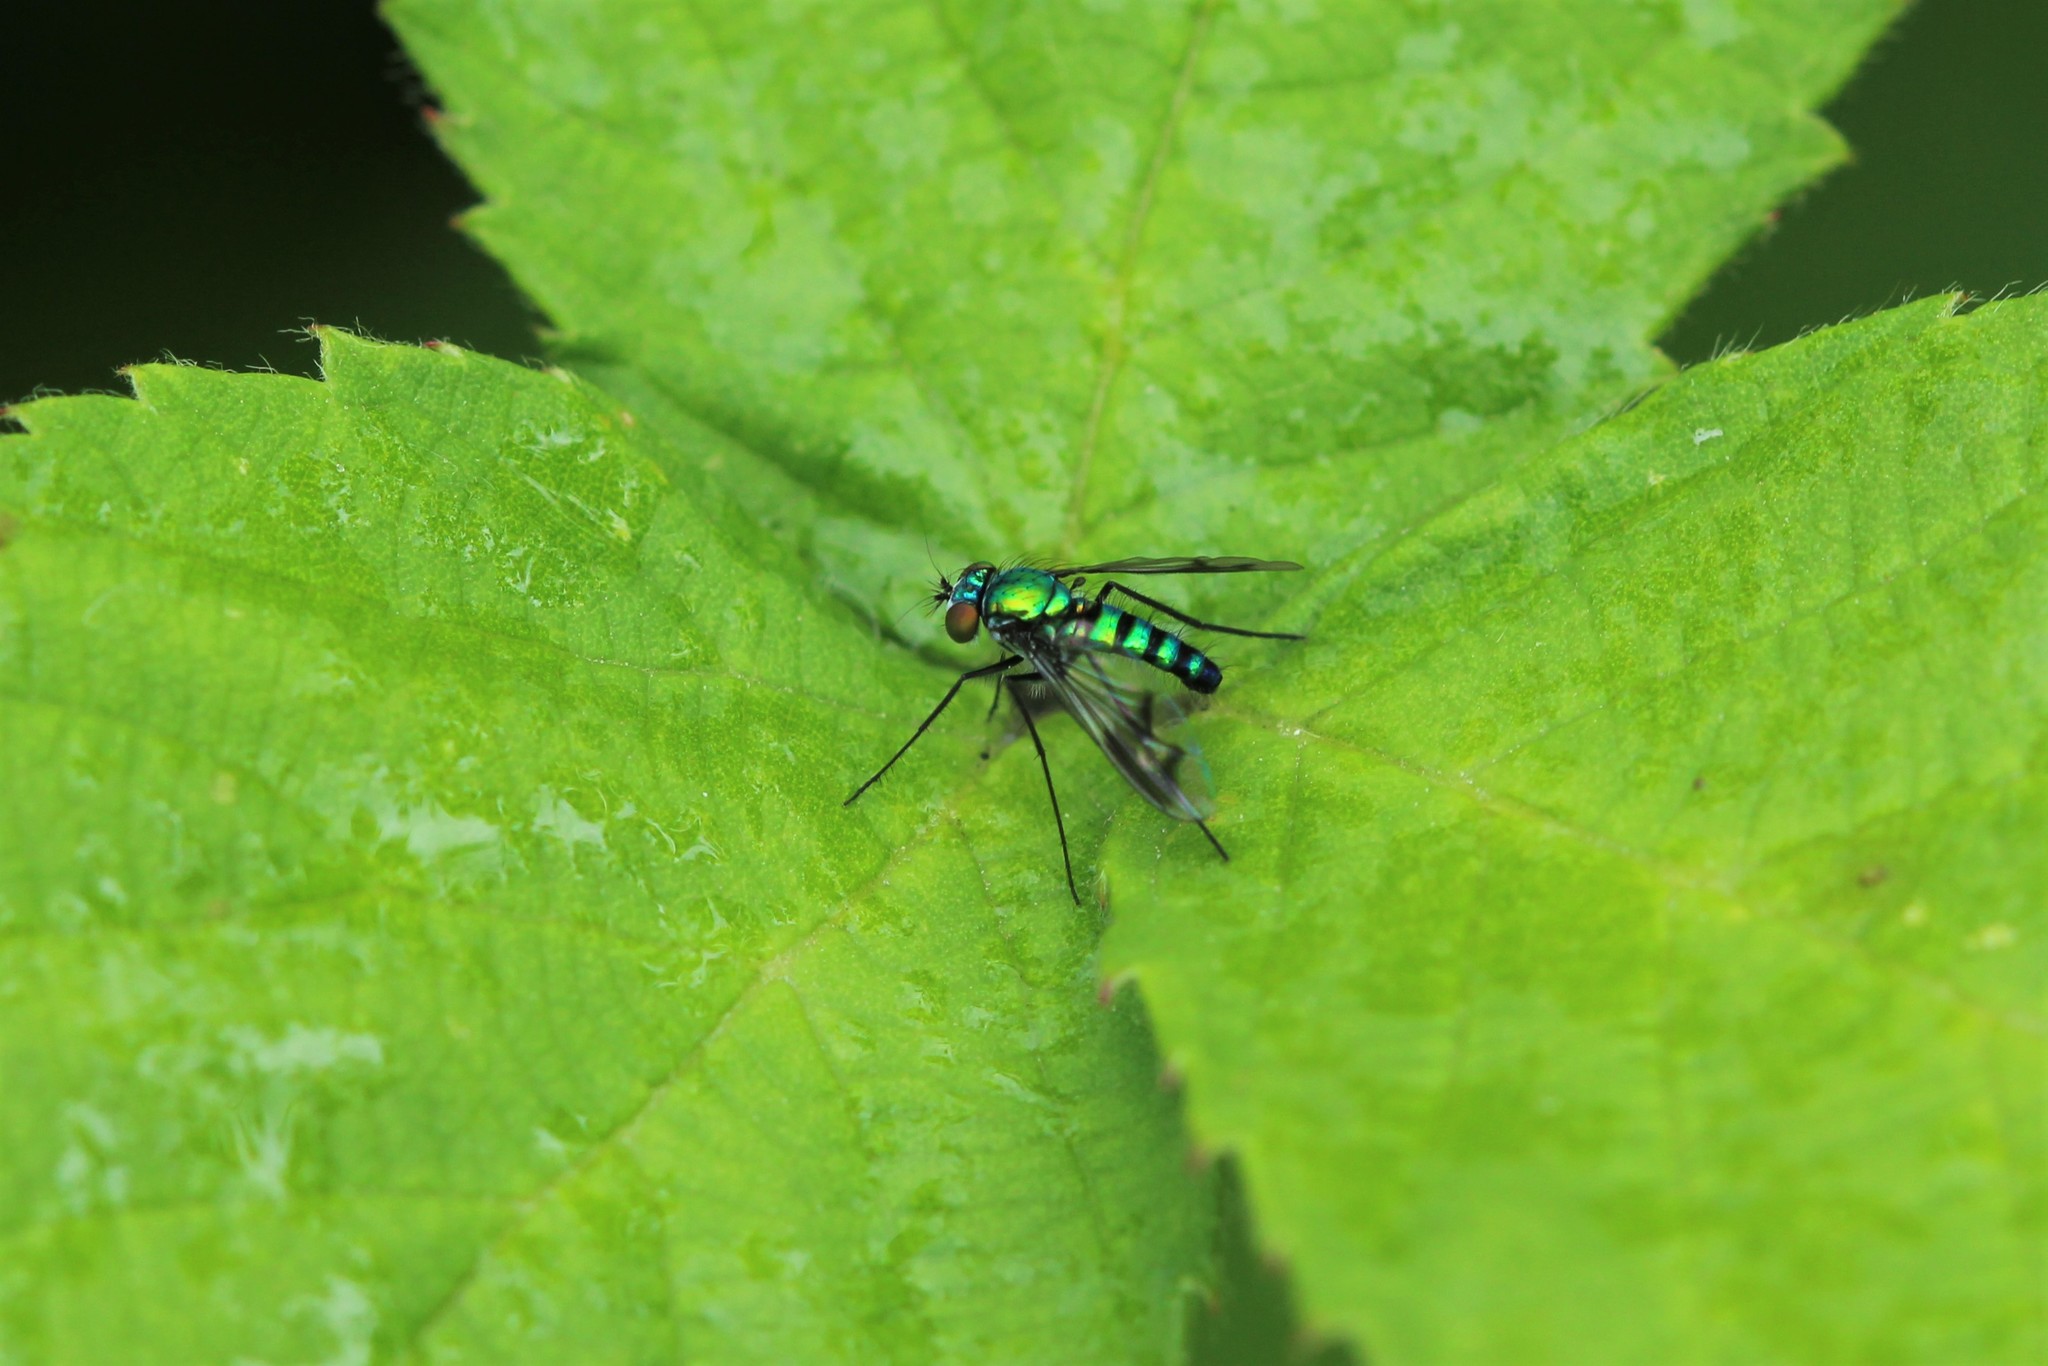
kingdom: Animalia
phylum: Arthropoda
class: Insecta
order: Diptera
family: Dolichopodidae
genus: Condylostylus
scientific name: Condylostylus occidentalis
